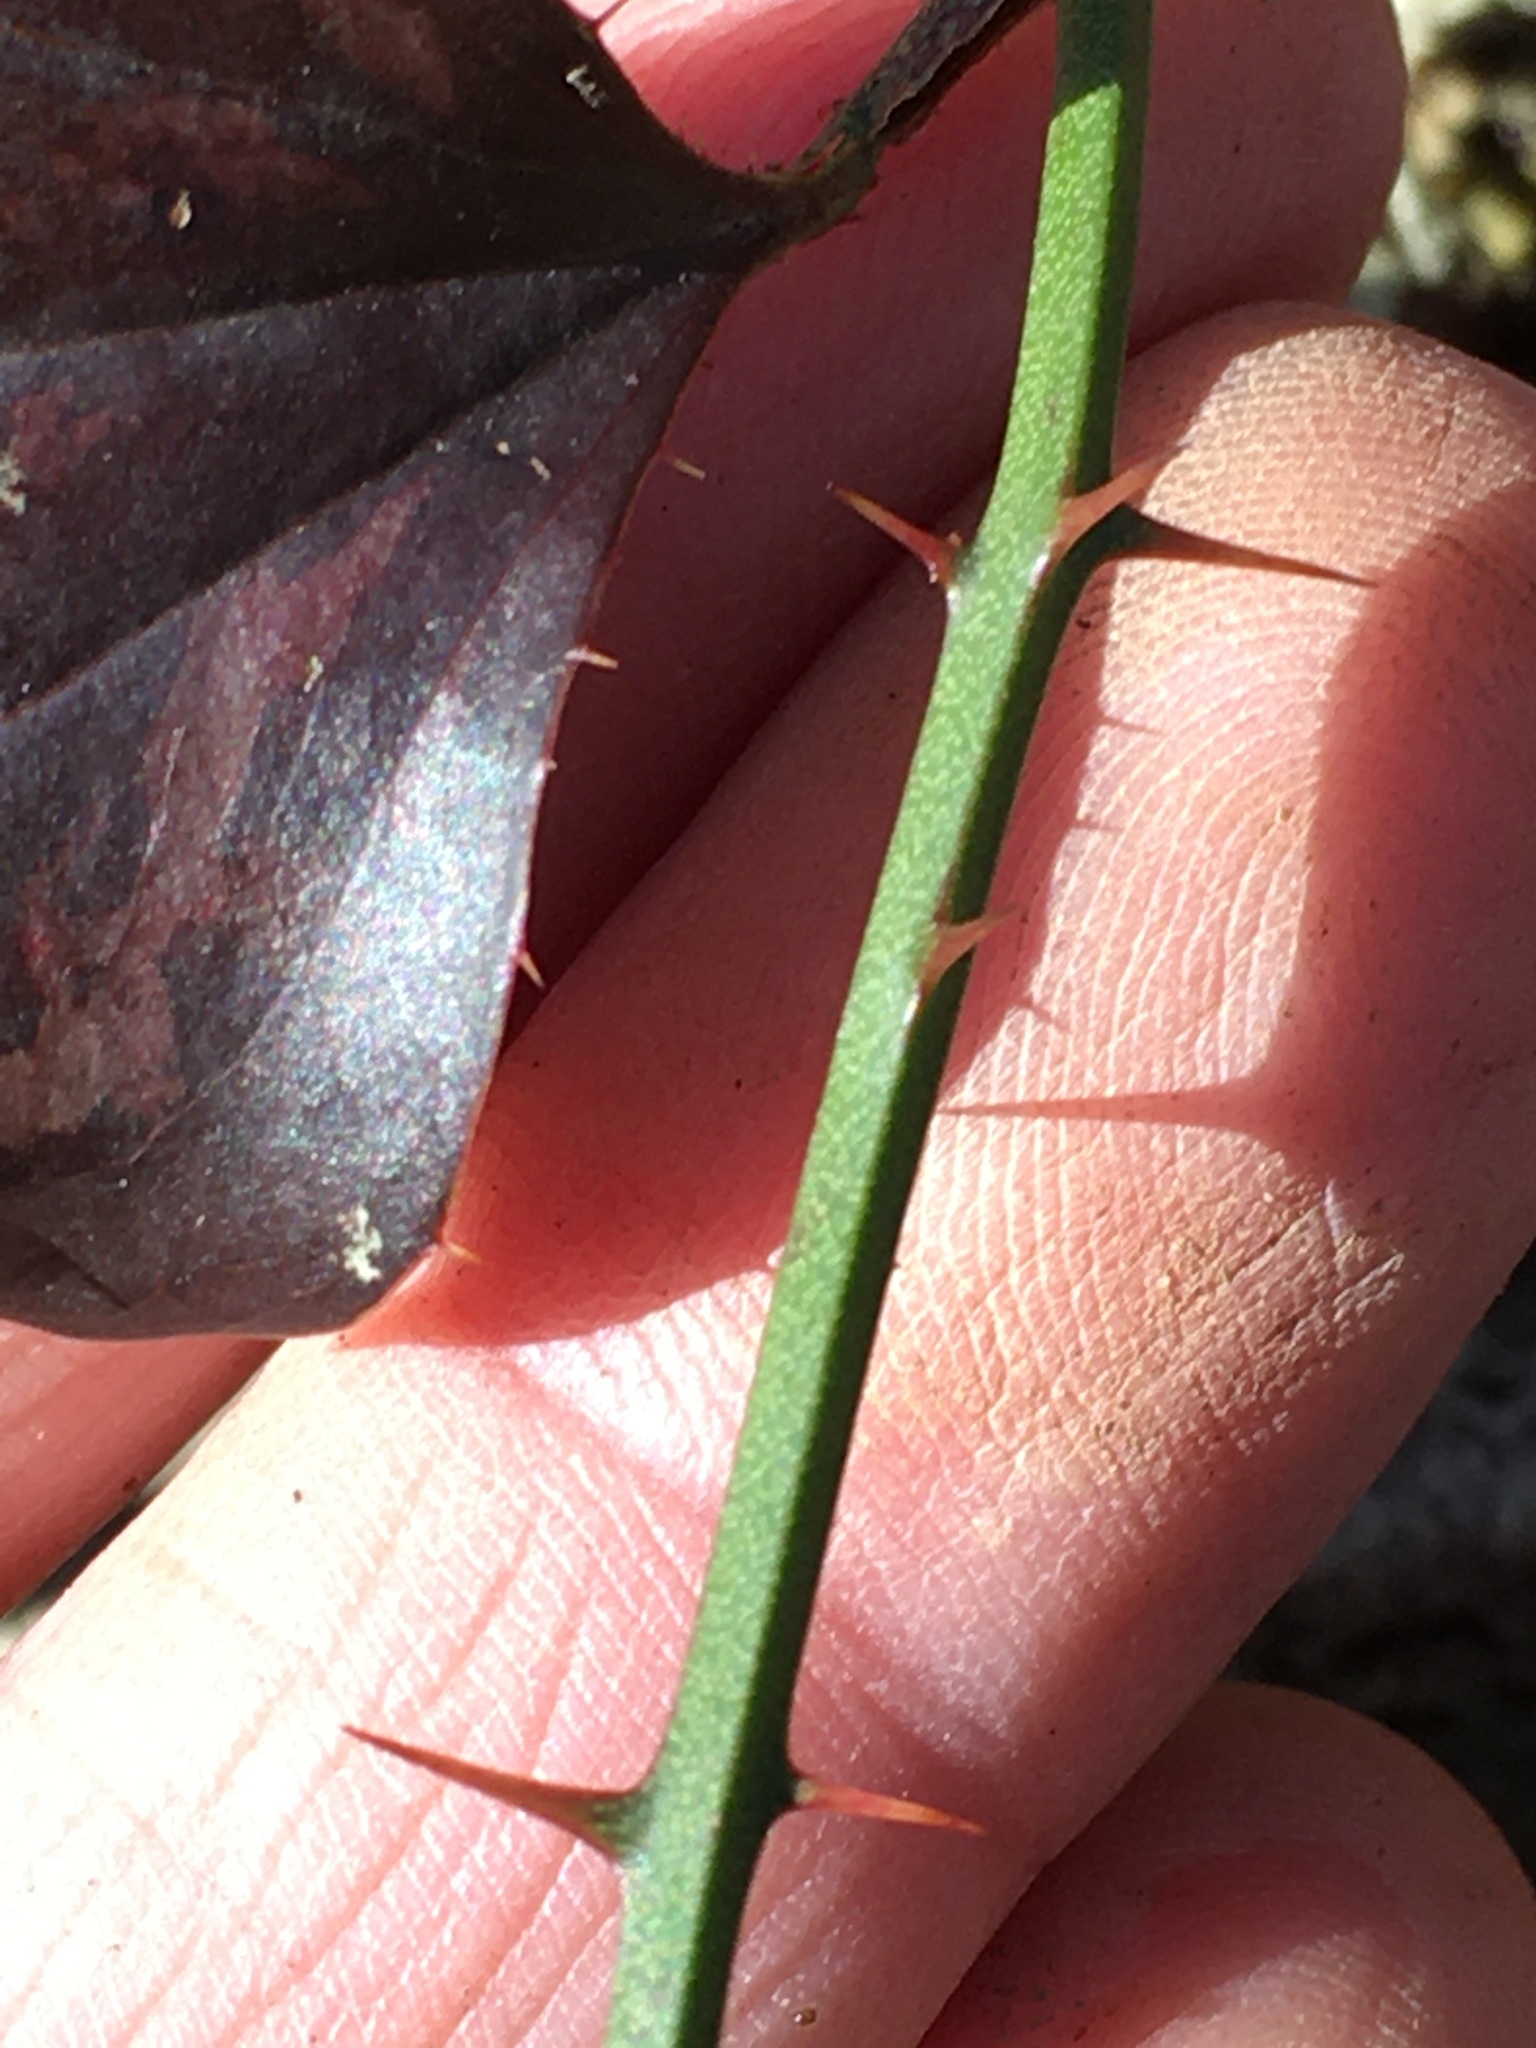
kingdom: Plantae
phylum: Tracheophyta
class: Liliopsida
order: Liliales
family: Smilacaceae
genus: Smilax
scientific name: Smilax bona-nox
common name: Catbrier
